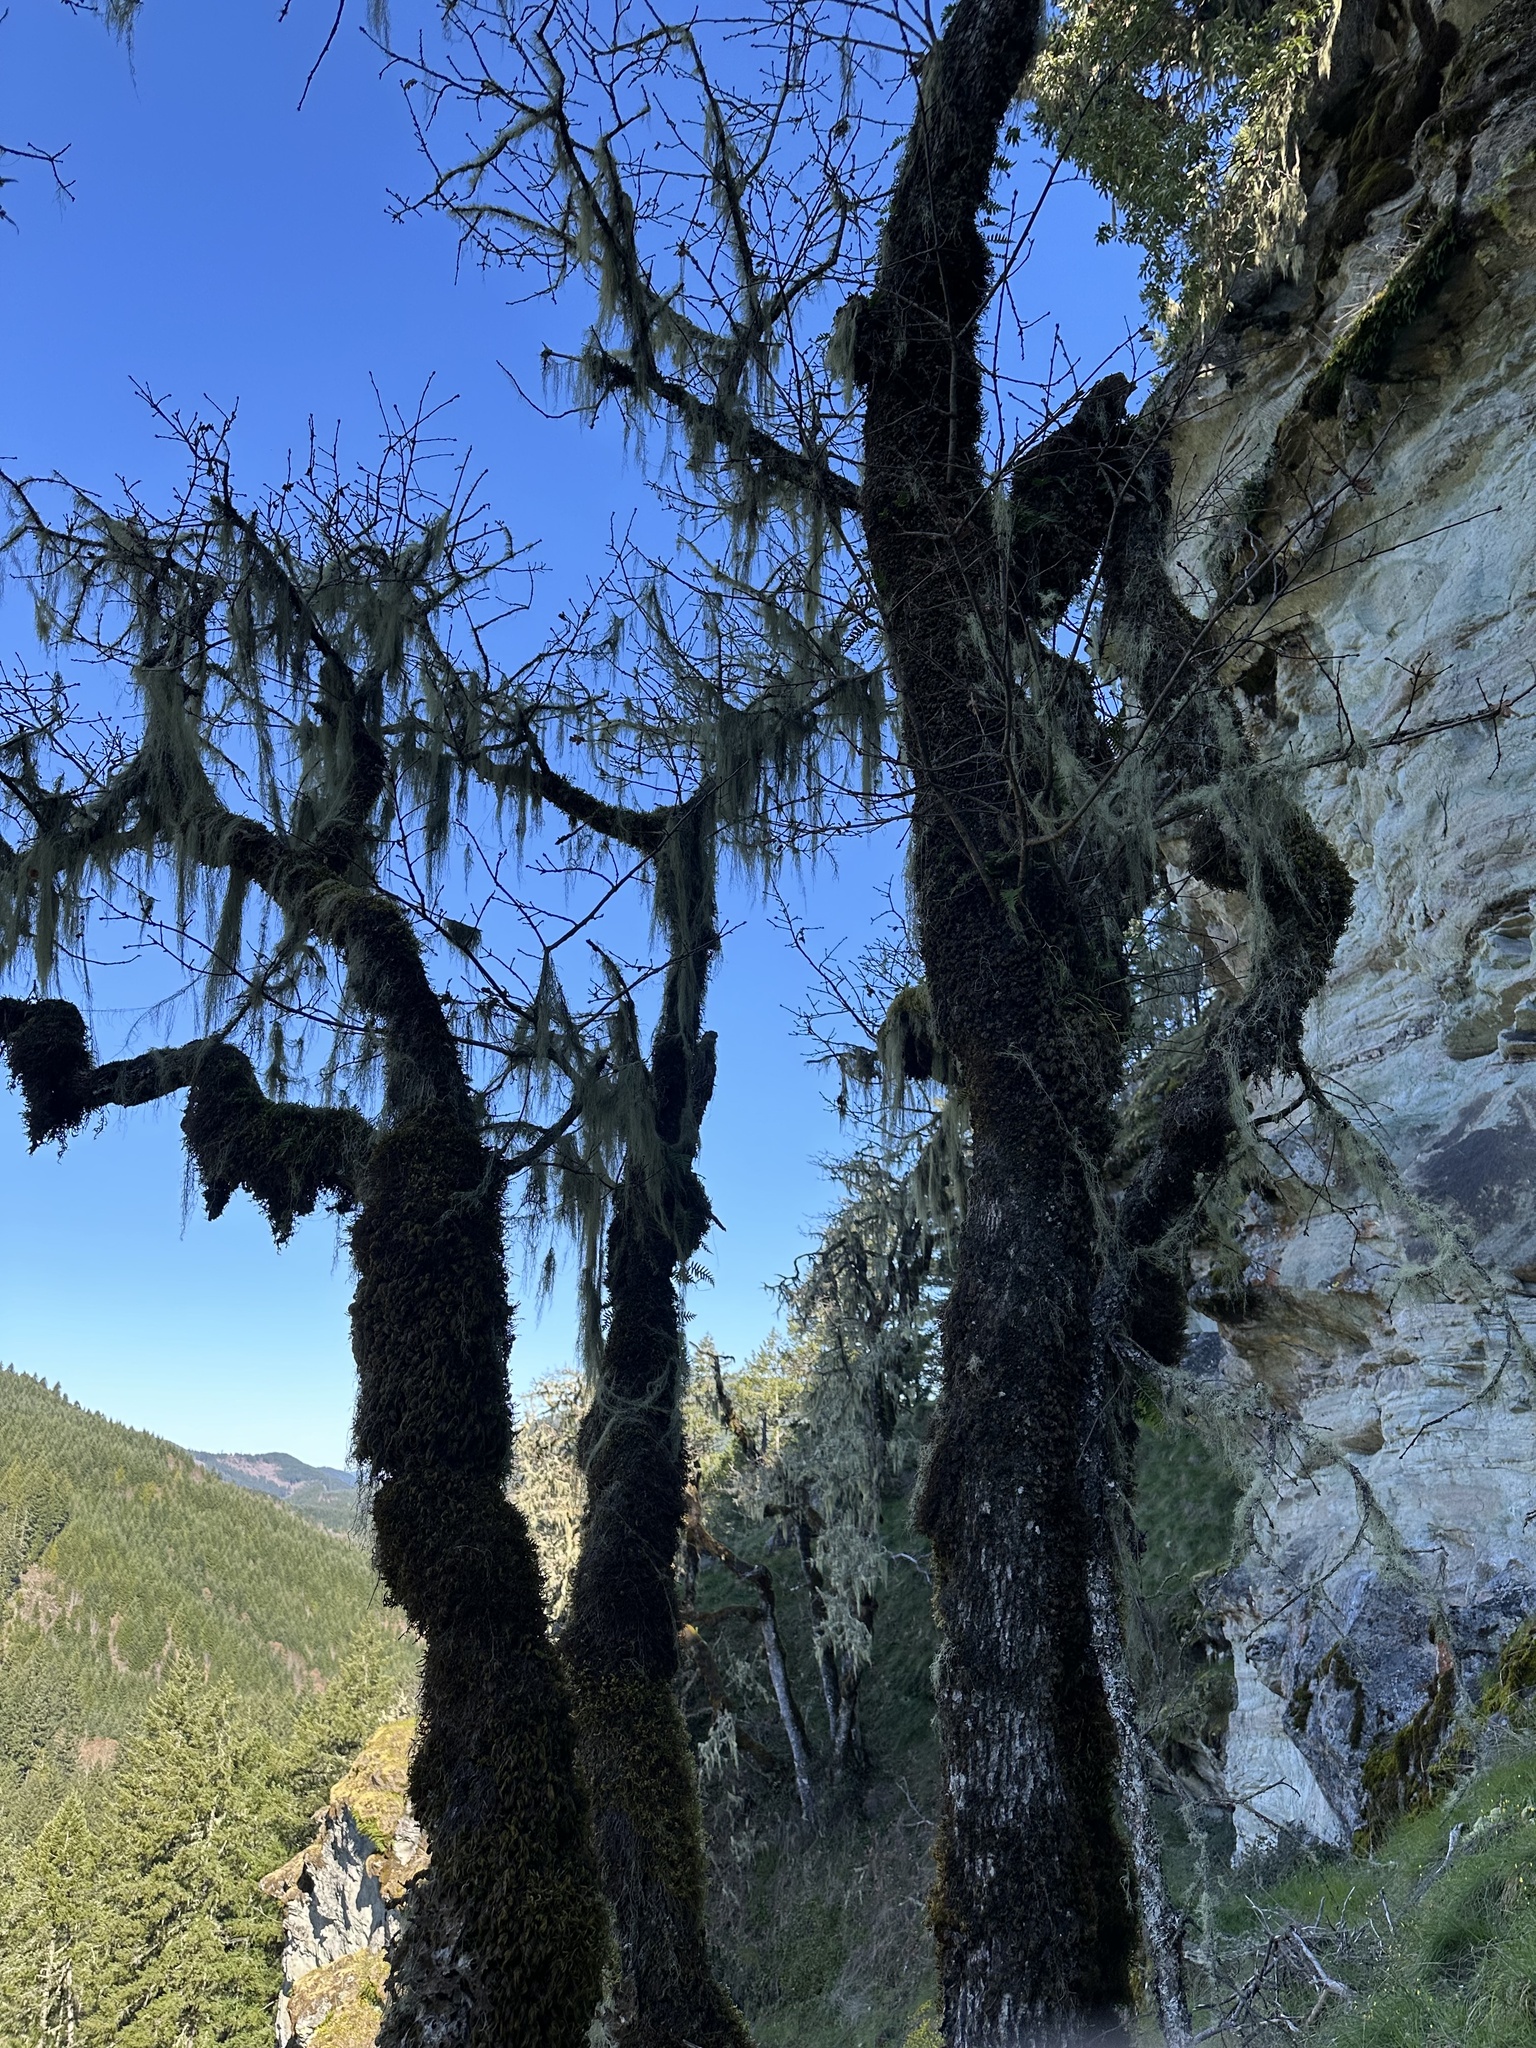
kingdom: Plantae
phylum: Tracheophyta
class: Magnoliopsida
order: Fagales
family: Fagaceae
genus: Quercus
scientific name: Quercus garryana
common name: Garry oak
